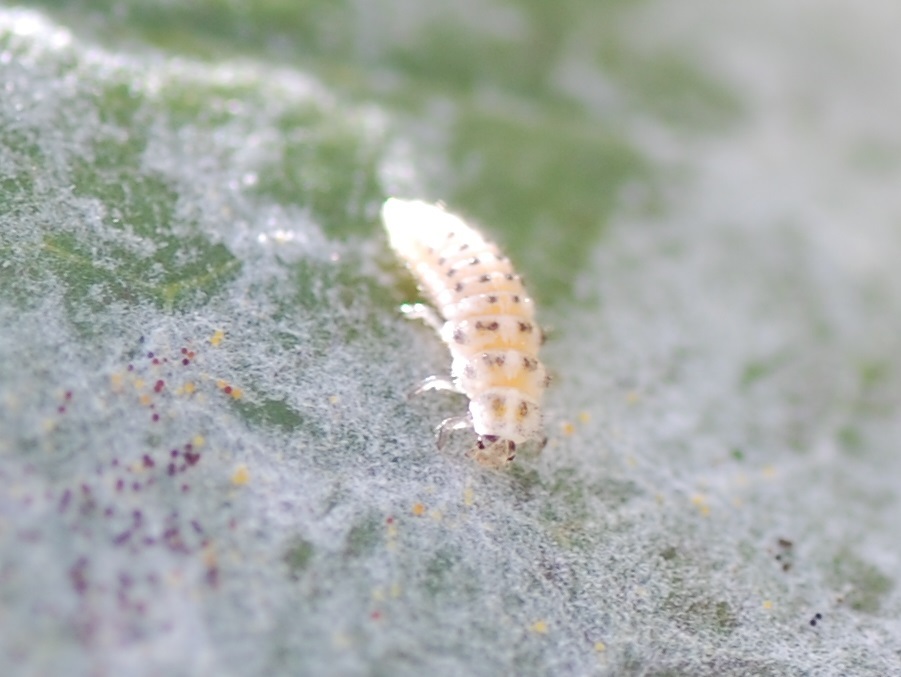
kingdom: Animalia
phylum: Arthropoda
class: Insecta
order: Coleoptera
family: Coccinellidae
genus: Psyllobora
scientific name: Psyllobora vigintimaculata
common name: Ladybird beetle
